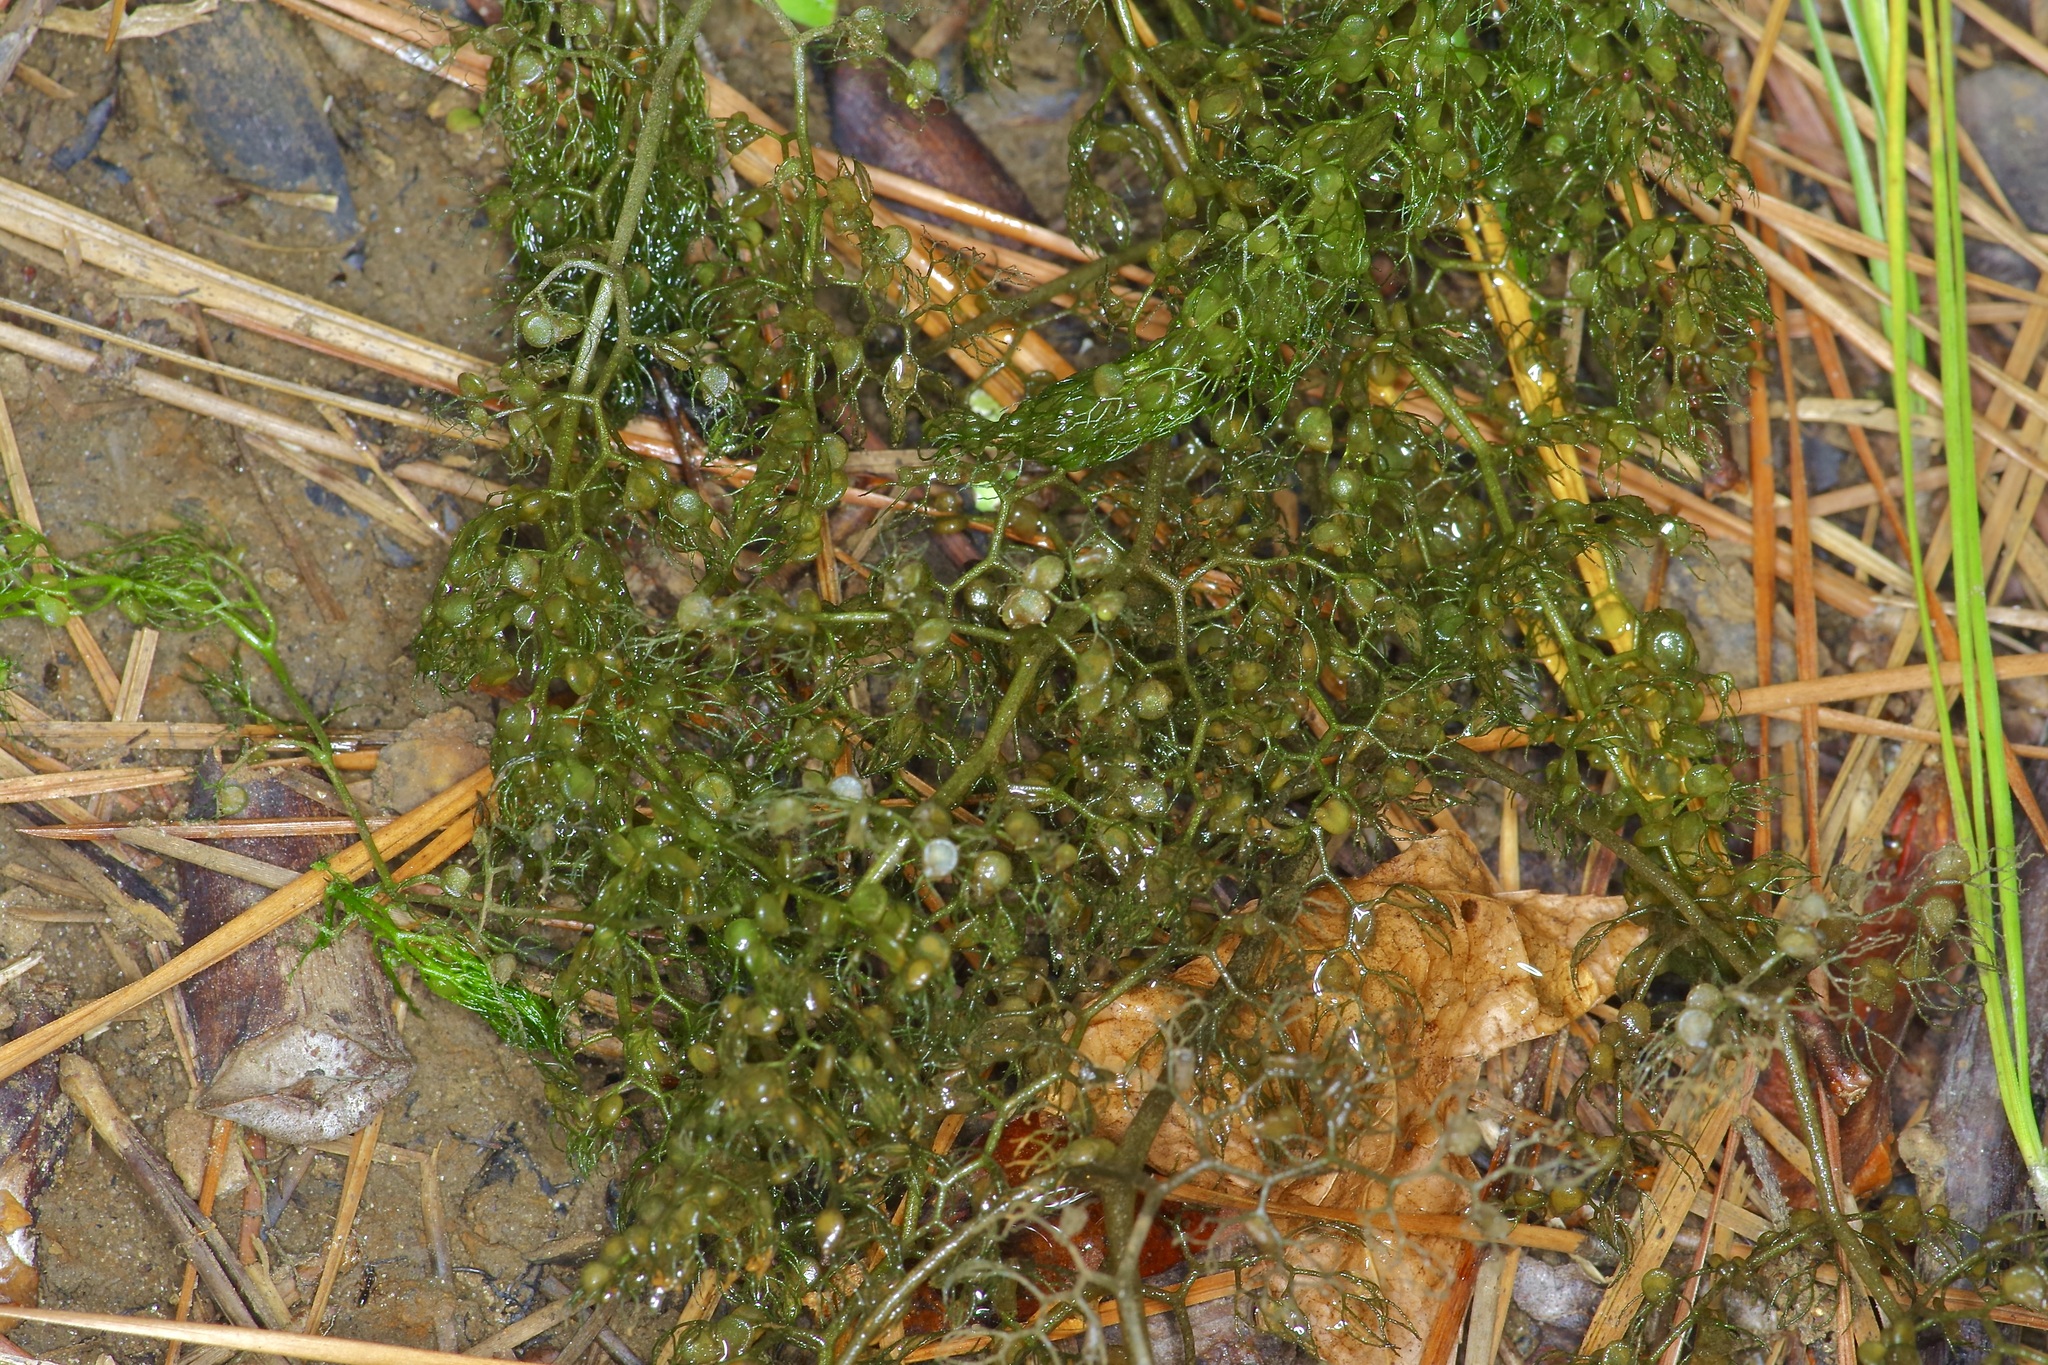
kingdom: Plantae
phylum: Tracheophyta
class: Magnoliopsida
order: Lamiales
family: Lentibulariaceae
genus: Utricularia
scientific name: Utricularia inflata
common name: Floating bladderwort
